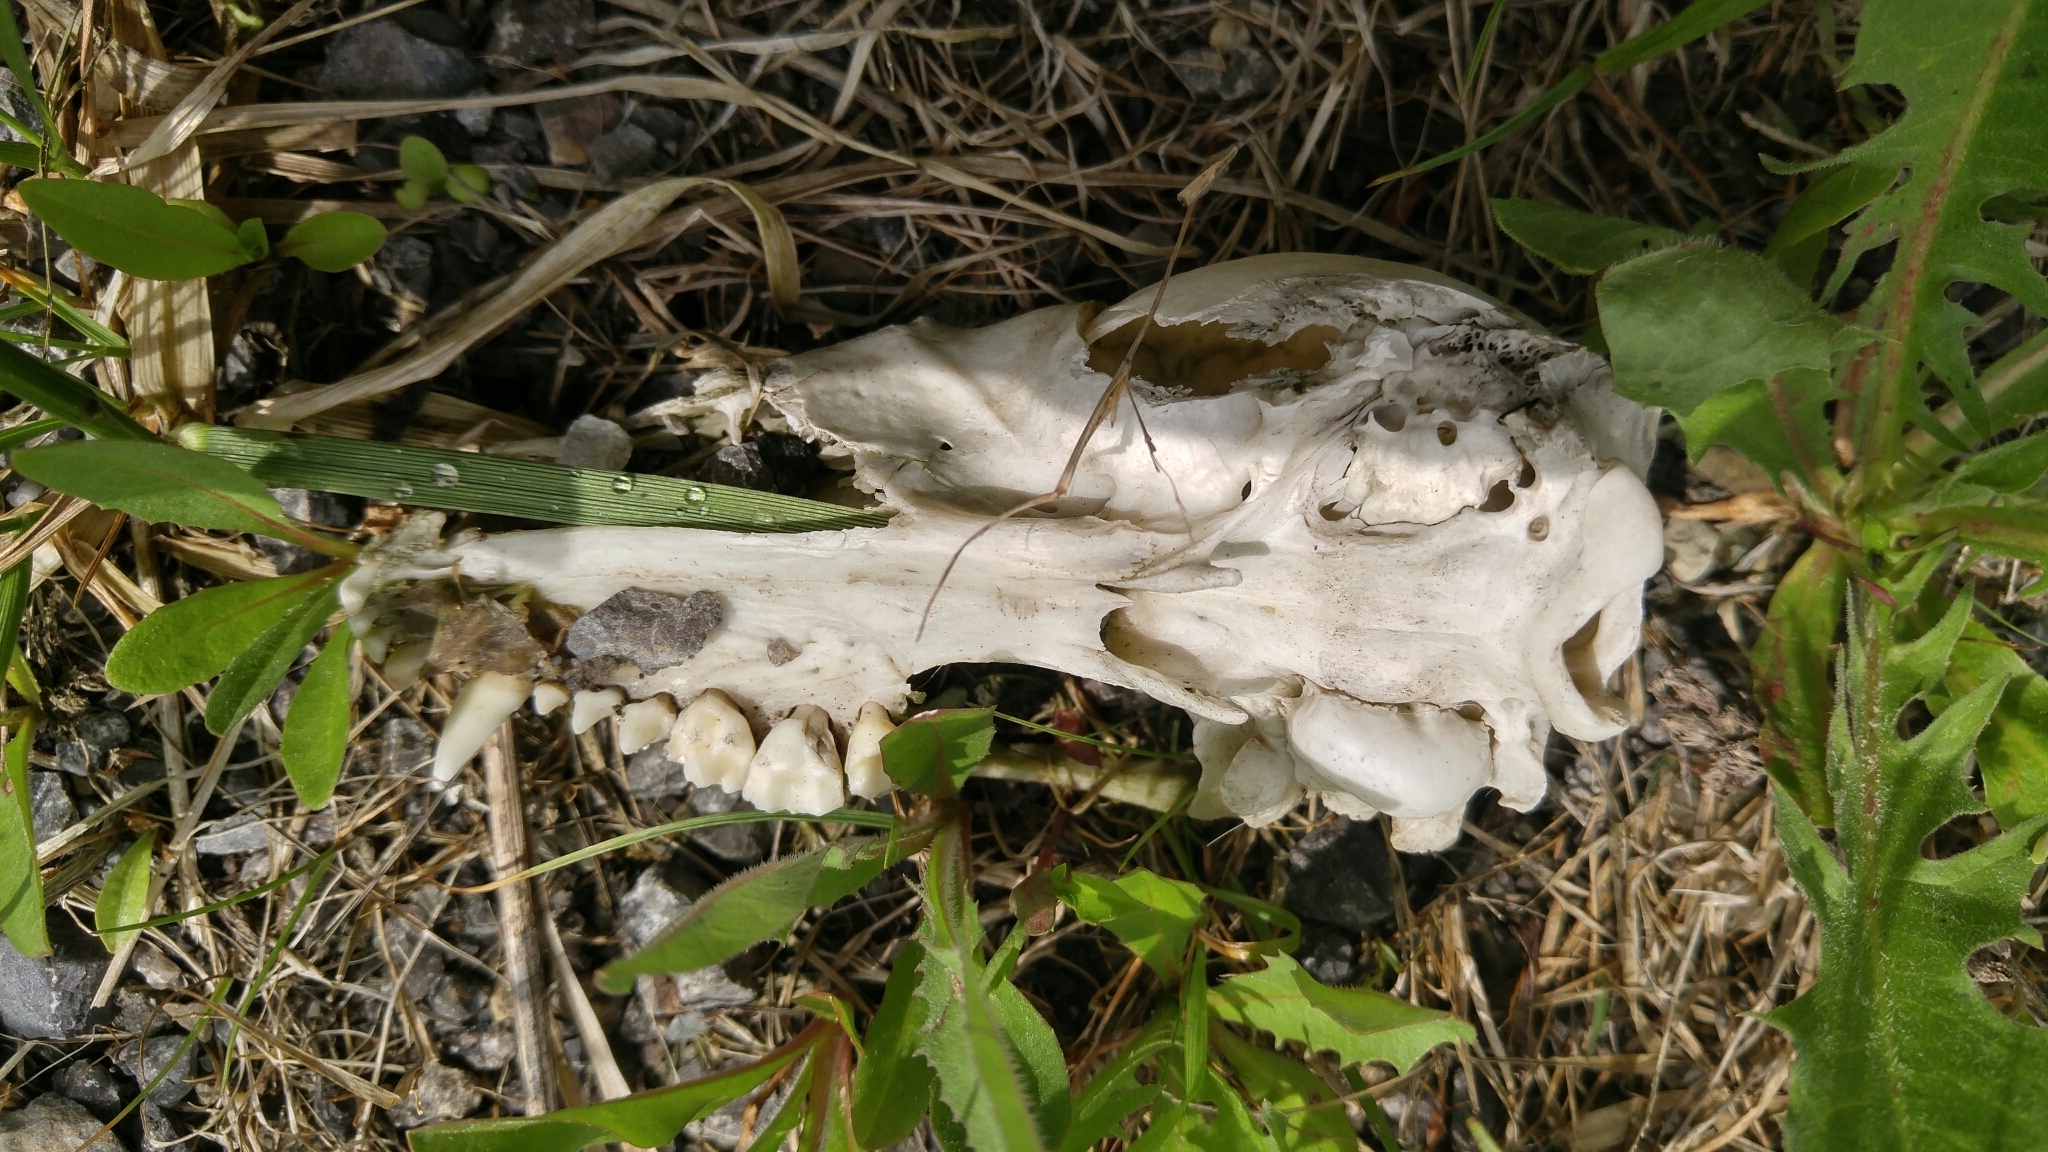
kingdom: Animalia
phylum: Chordata
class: Mammalia
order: Carnivora
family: Procyonidae
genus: Procyon
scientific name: Procyon lotor
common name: Raccoon
